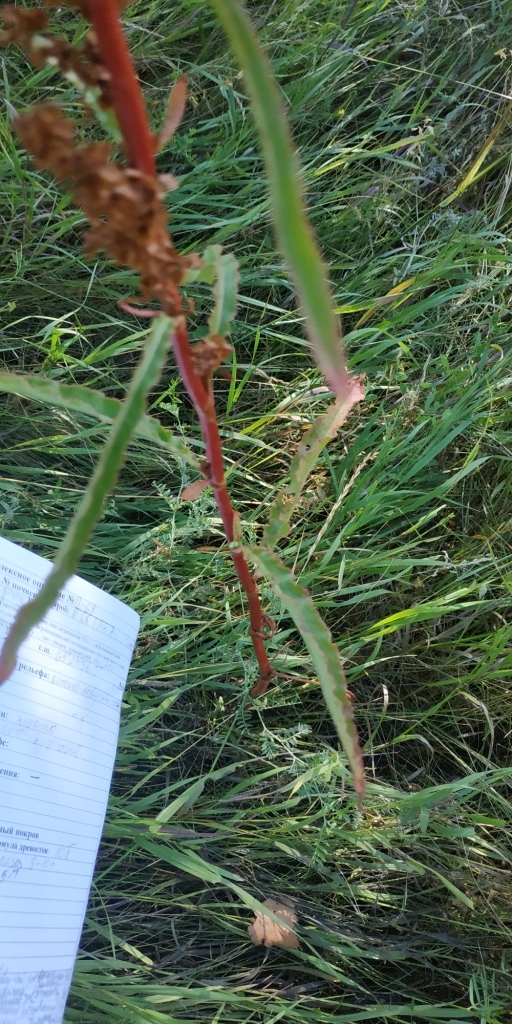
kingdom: Plantae
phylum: Tracheophyta
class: Magnoliopsida
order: Caryophyllales
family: Polygonaceae
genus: Rumex
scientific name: Rumex pseudonatronatus
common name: Field dock
